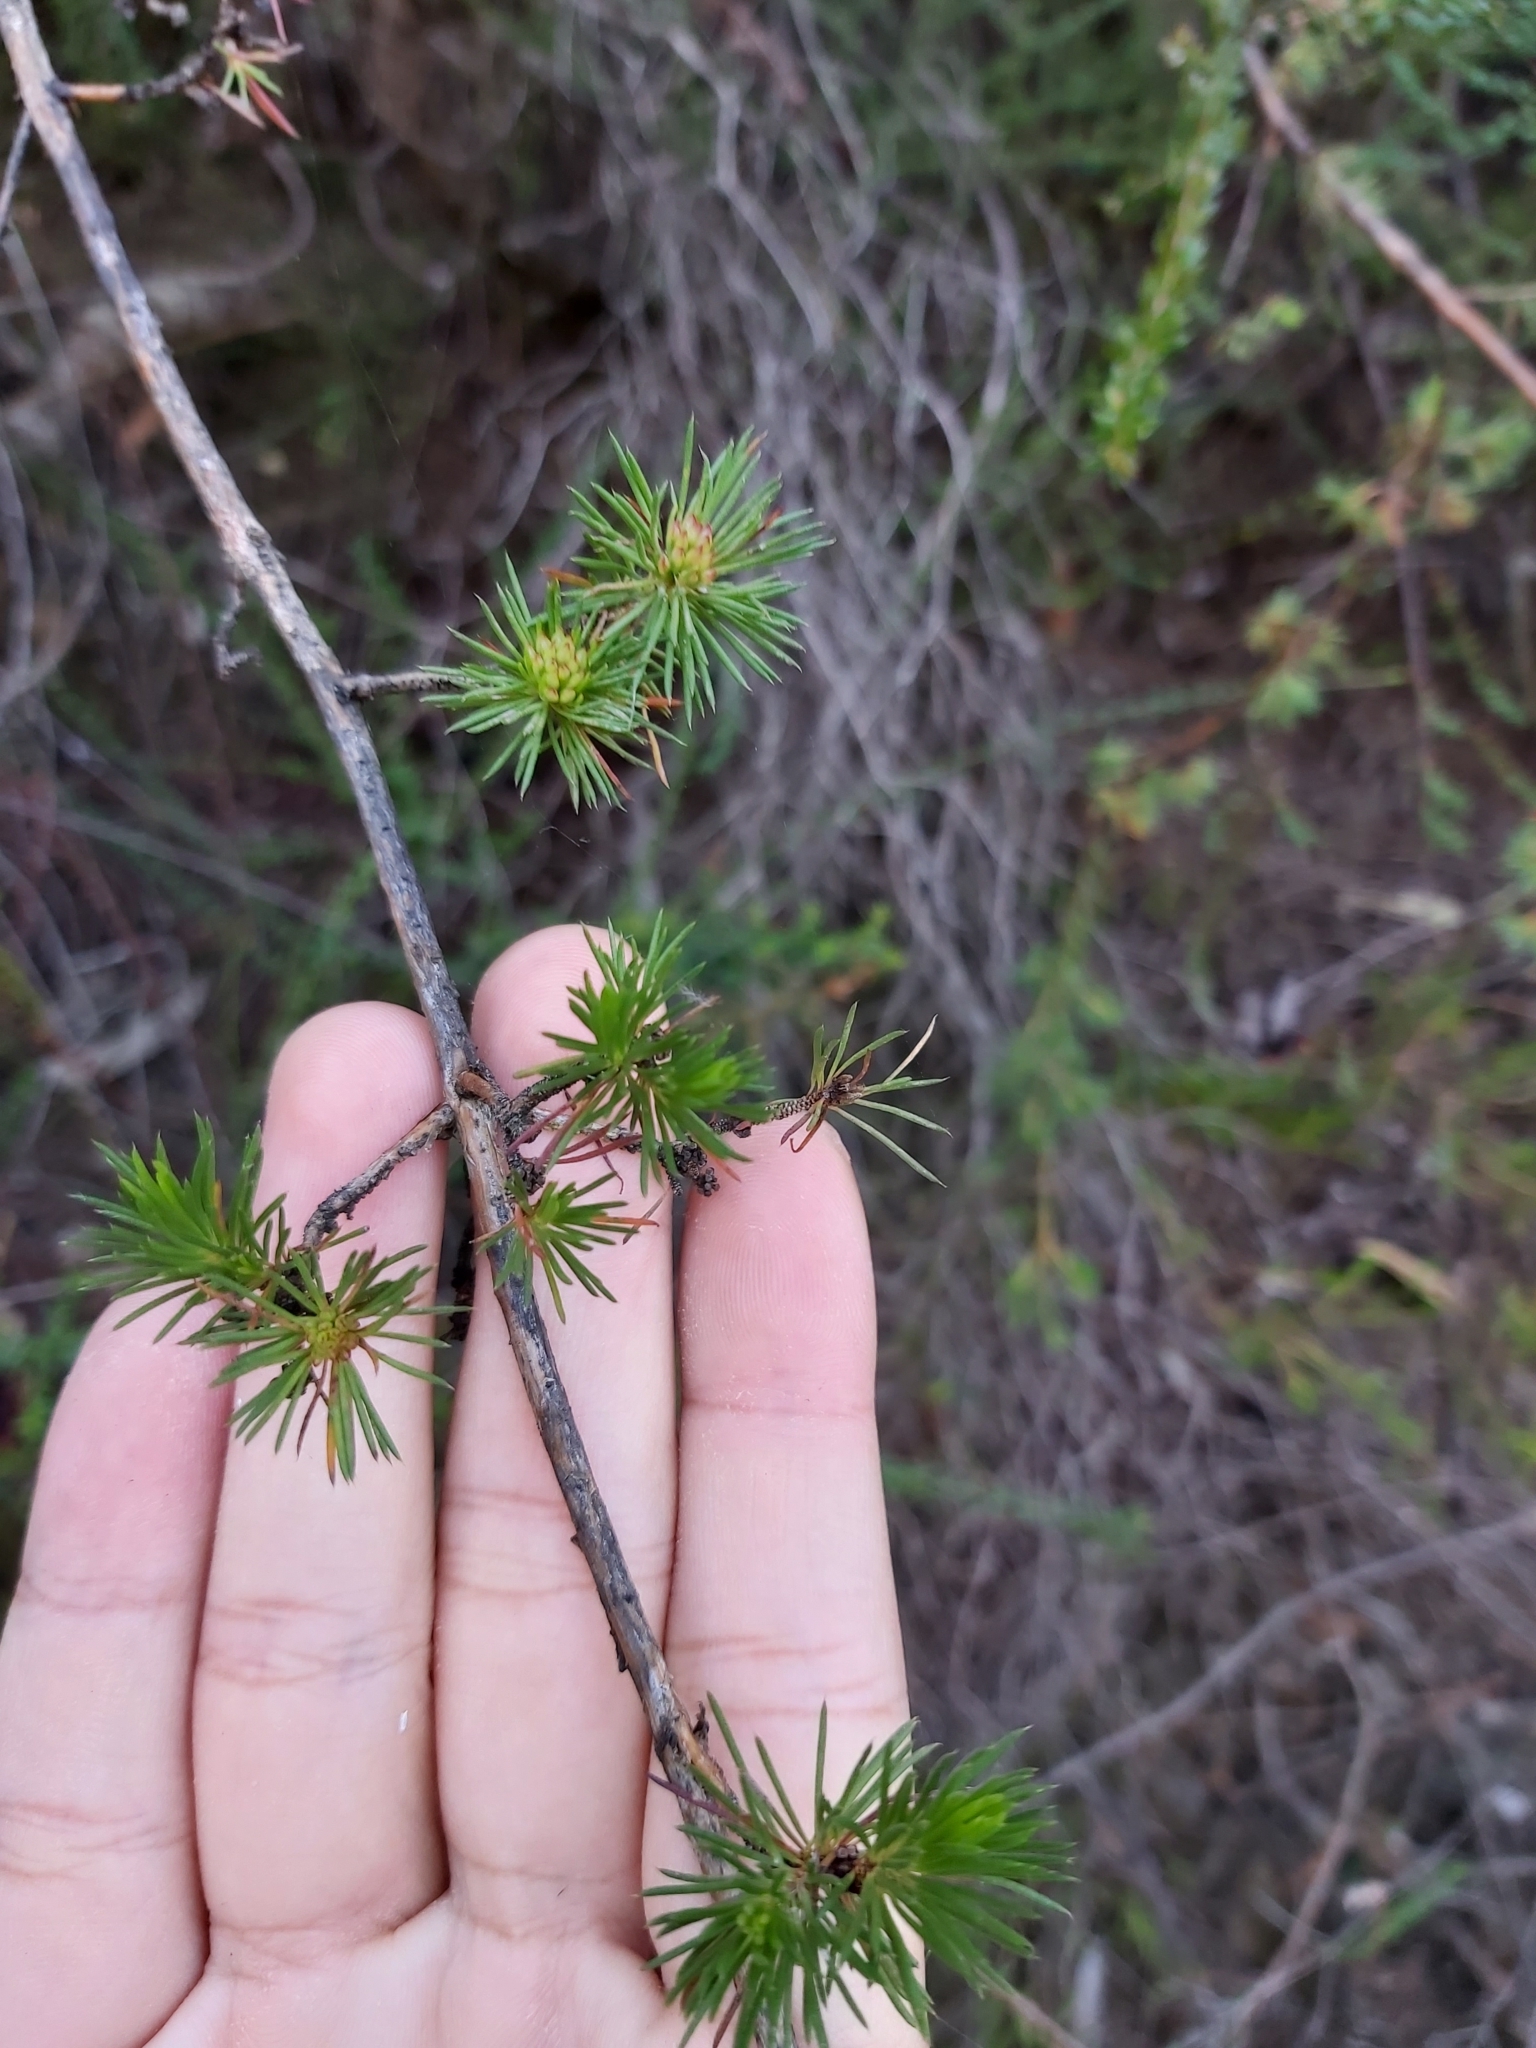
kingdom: Plantae
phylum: Tracheophyta
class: Magnoliopsida
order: Myrtales
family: Myrtaceae
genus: Darwinia
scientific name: Darwinia fascicularis
